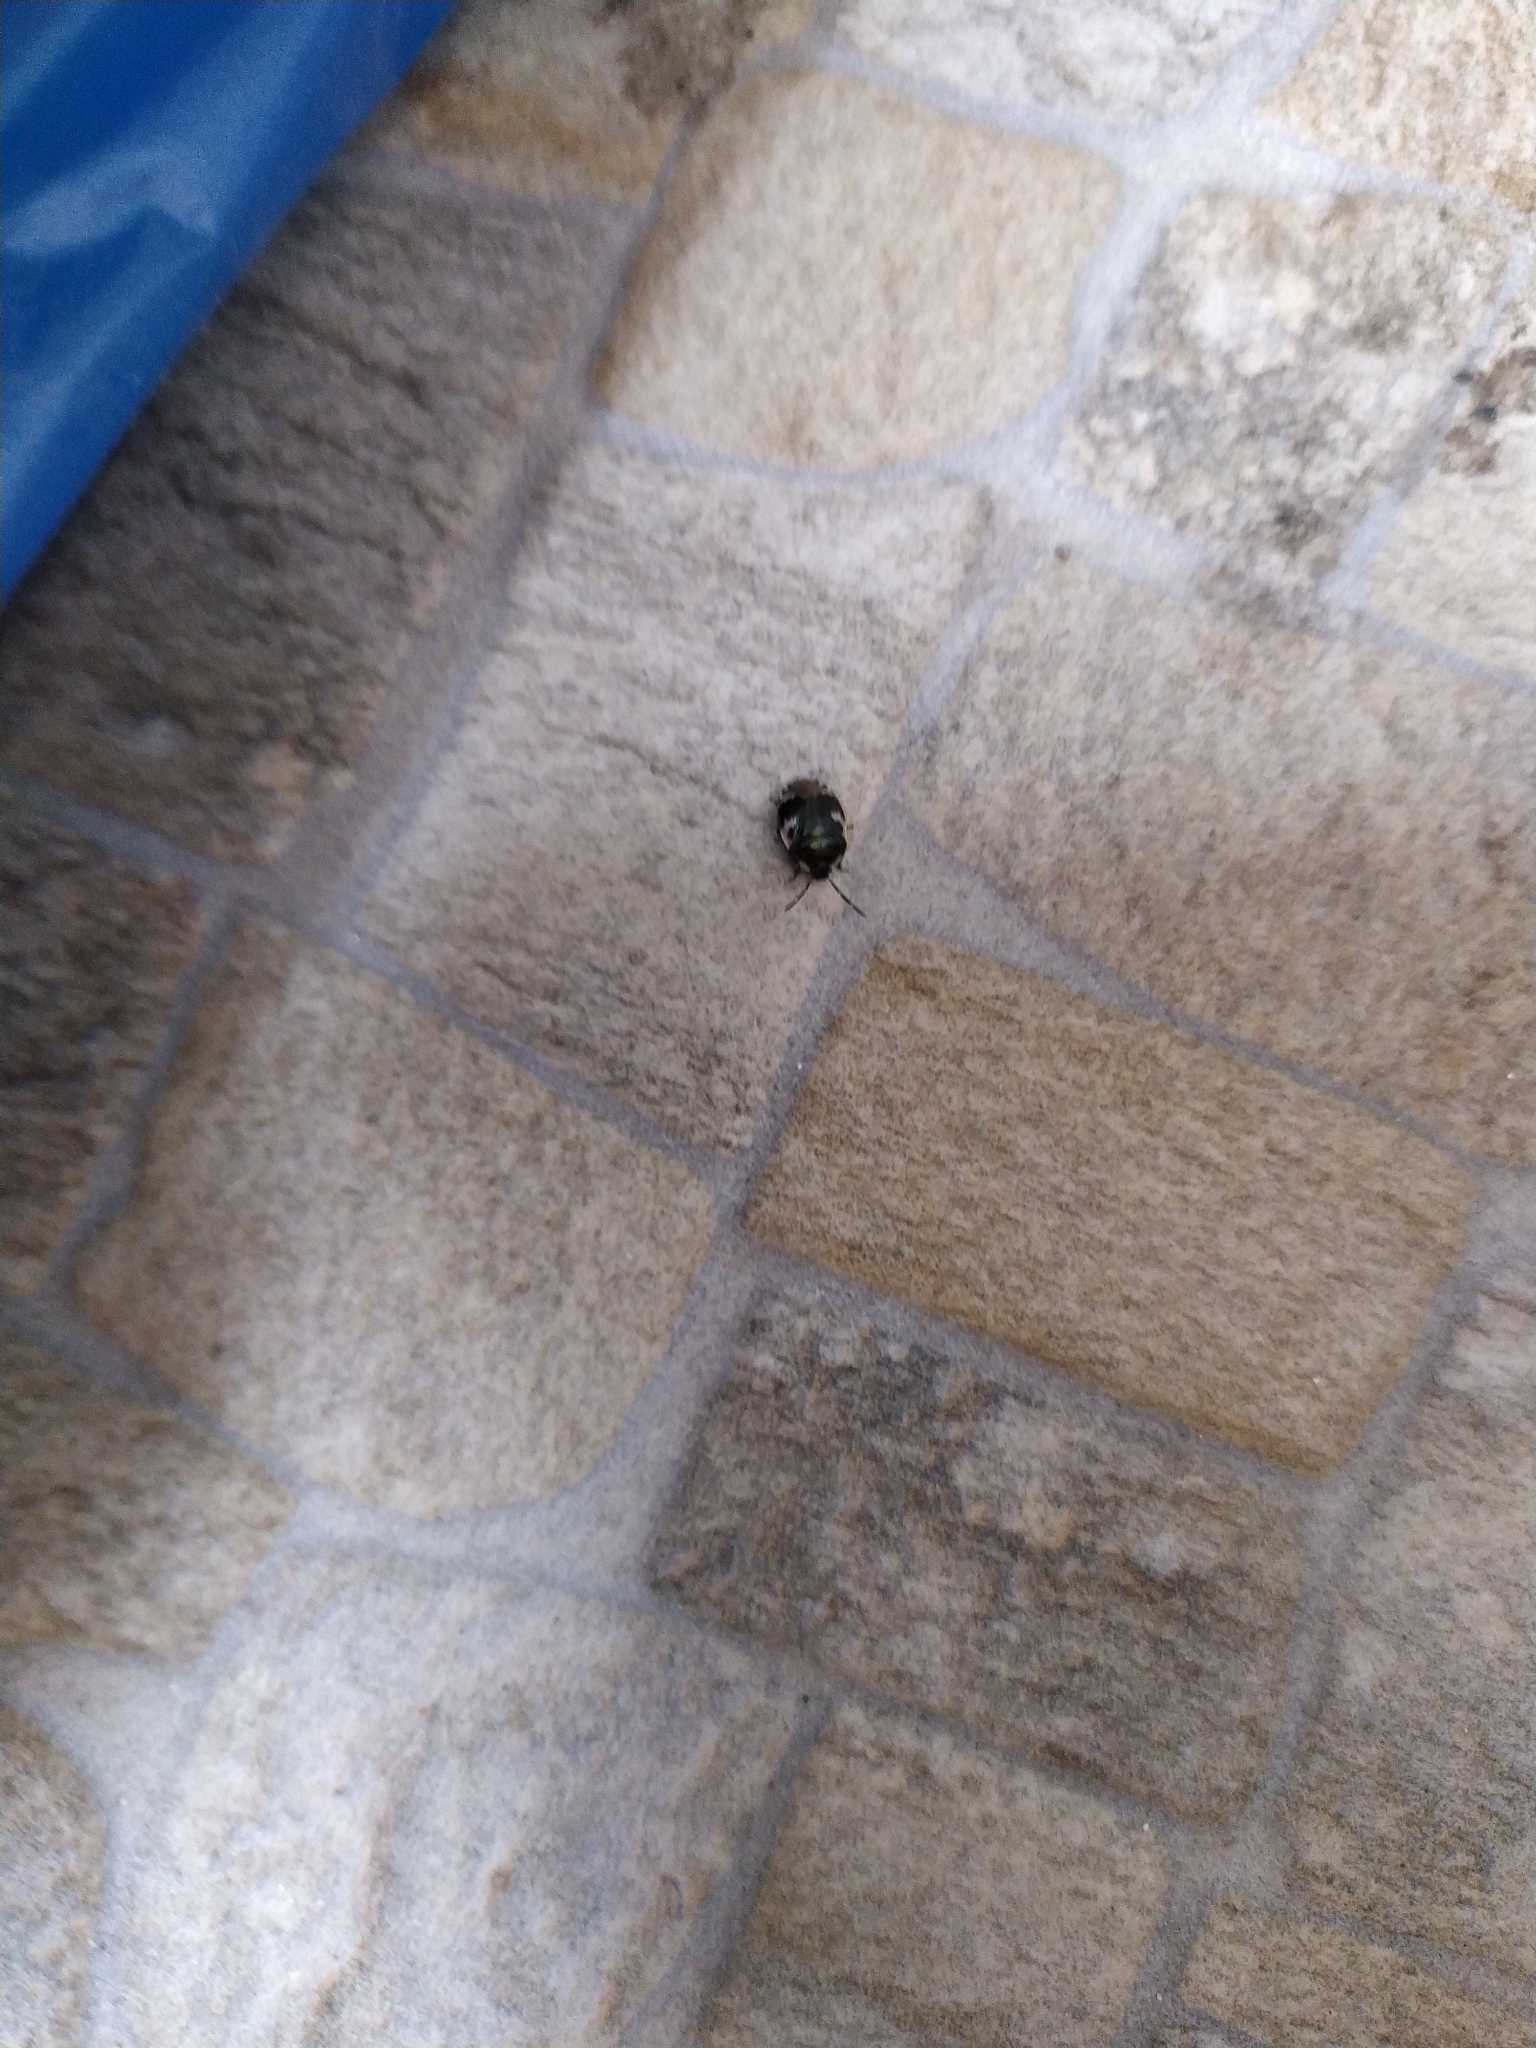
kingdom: Animalia
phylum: Arthropoda
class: Insecta
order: Hemiptera
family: Cydnidae
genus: Tritomegas
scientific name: Tritomegas bicolor
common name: Pied shieldbug
